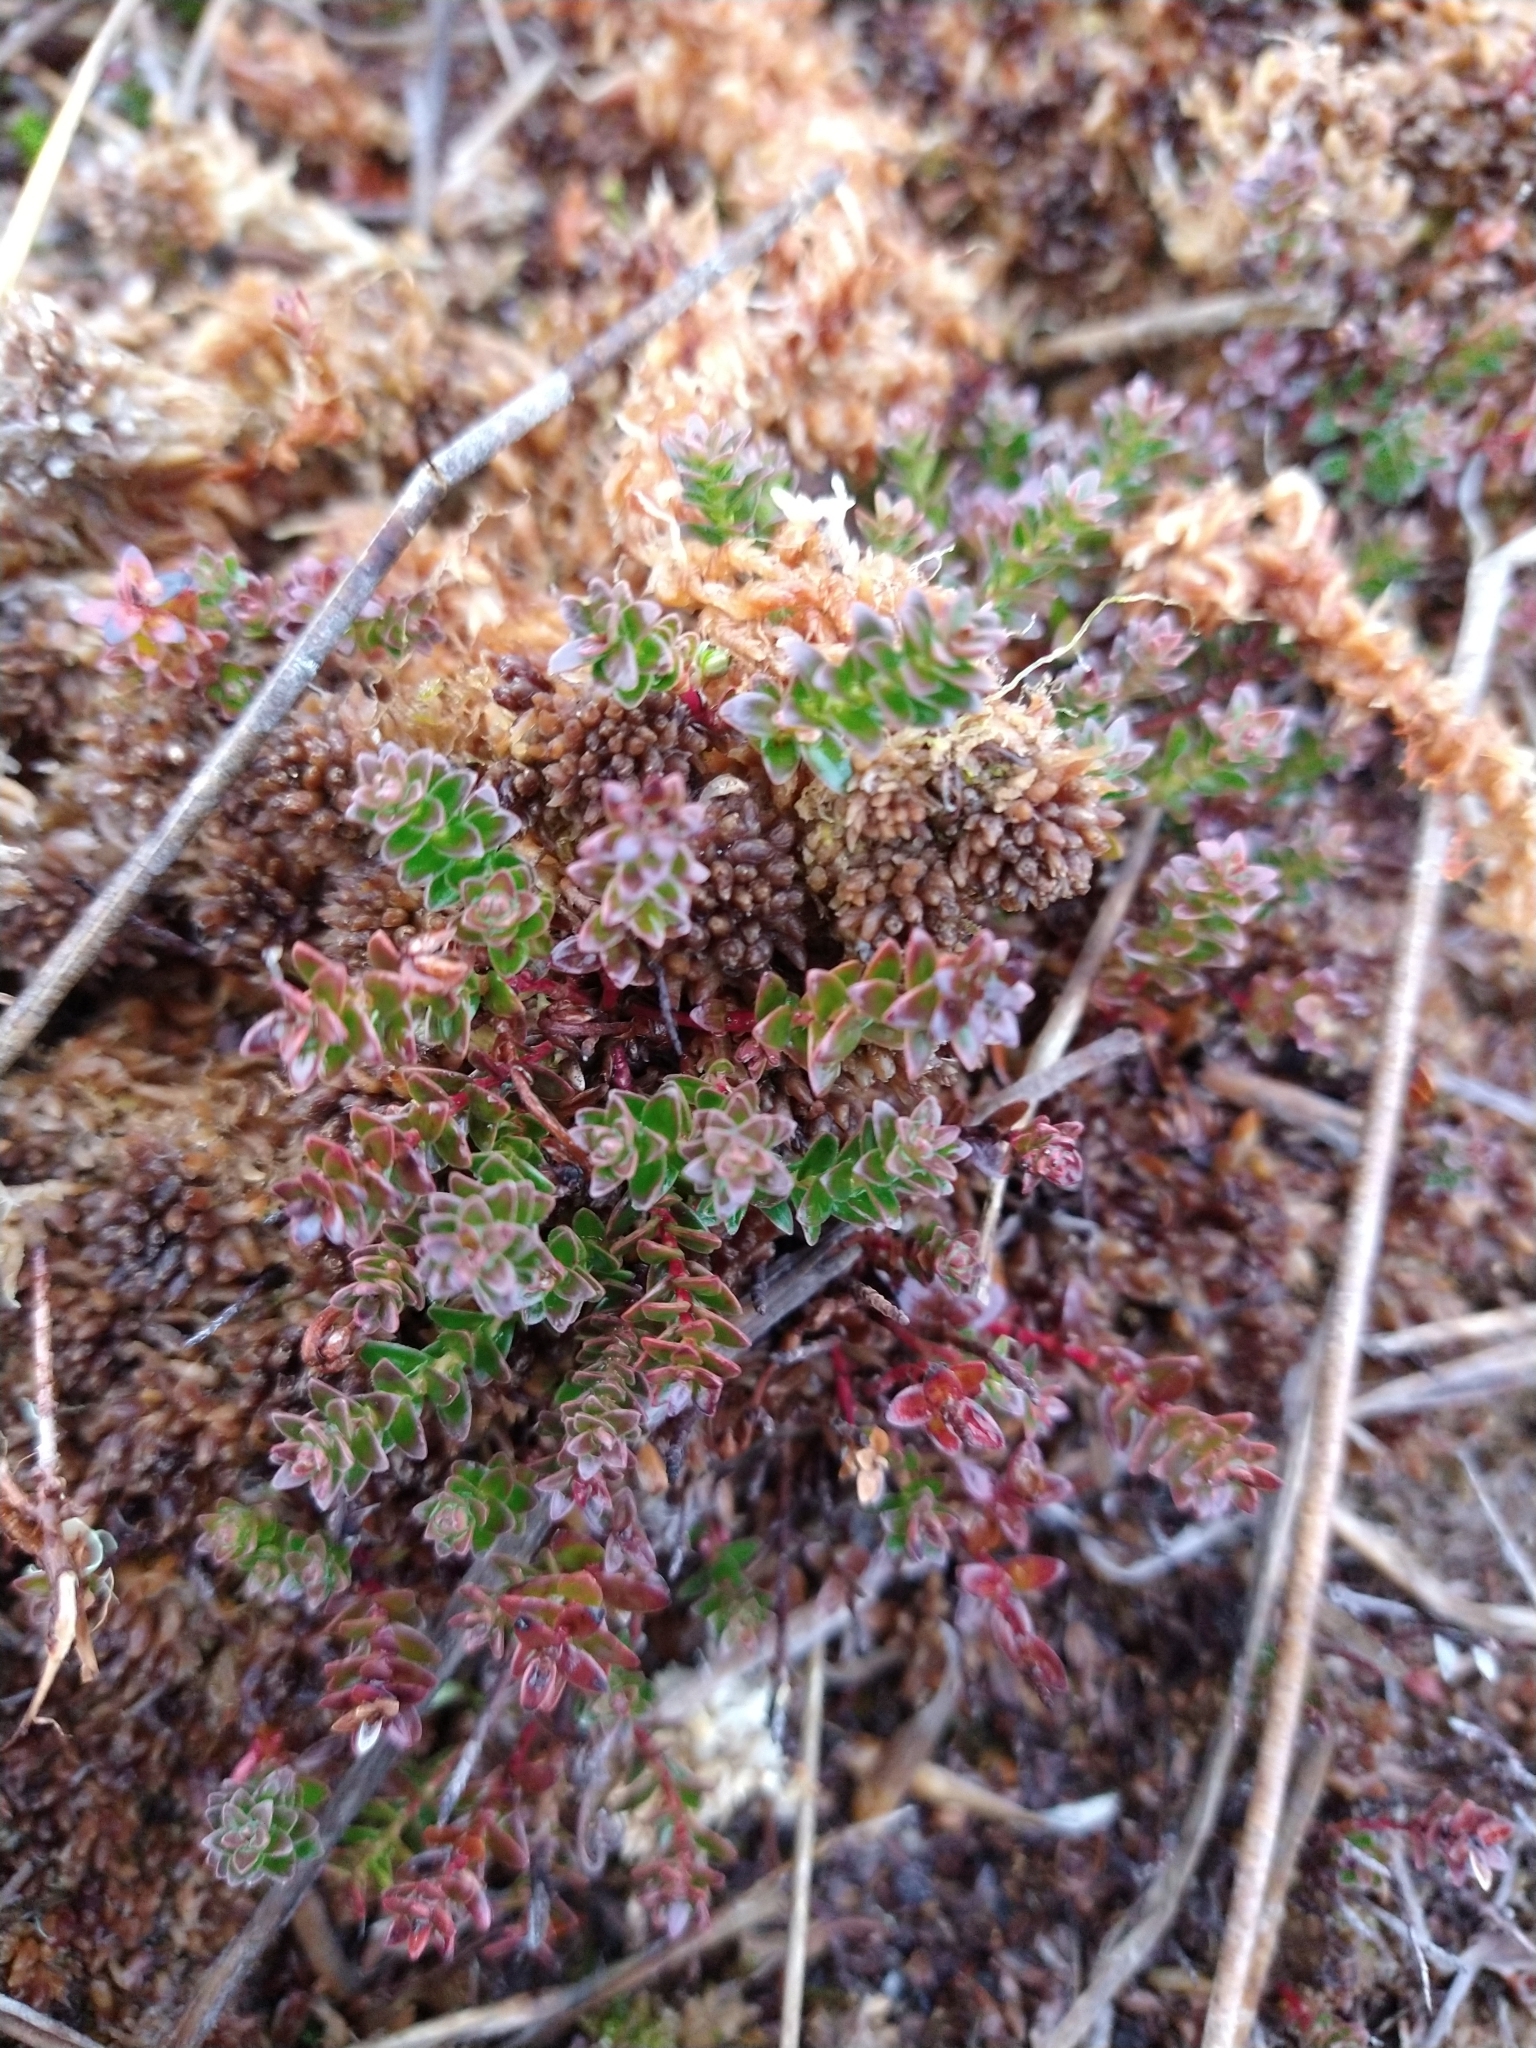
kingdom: Plantae
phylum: Tracheophyta
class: Magnoliopsida
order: Ericales
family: Ericaceae
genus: Gaultheria
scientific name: Gaultheria pumila
